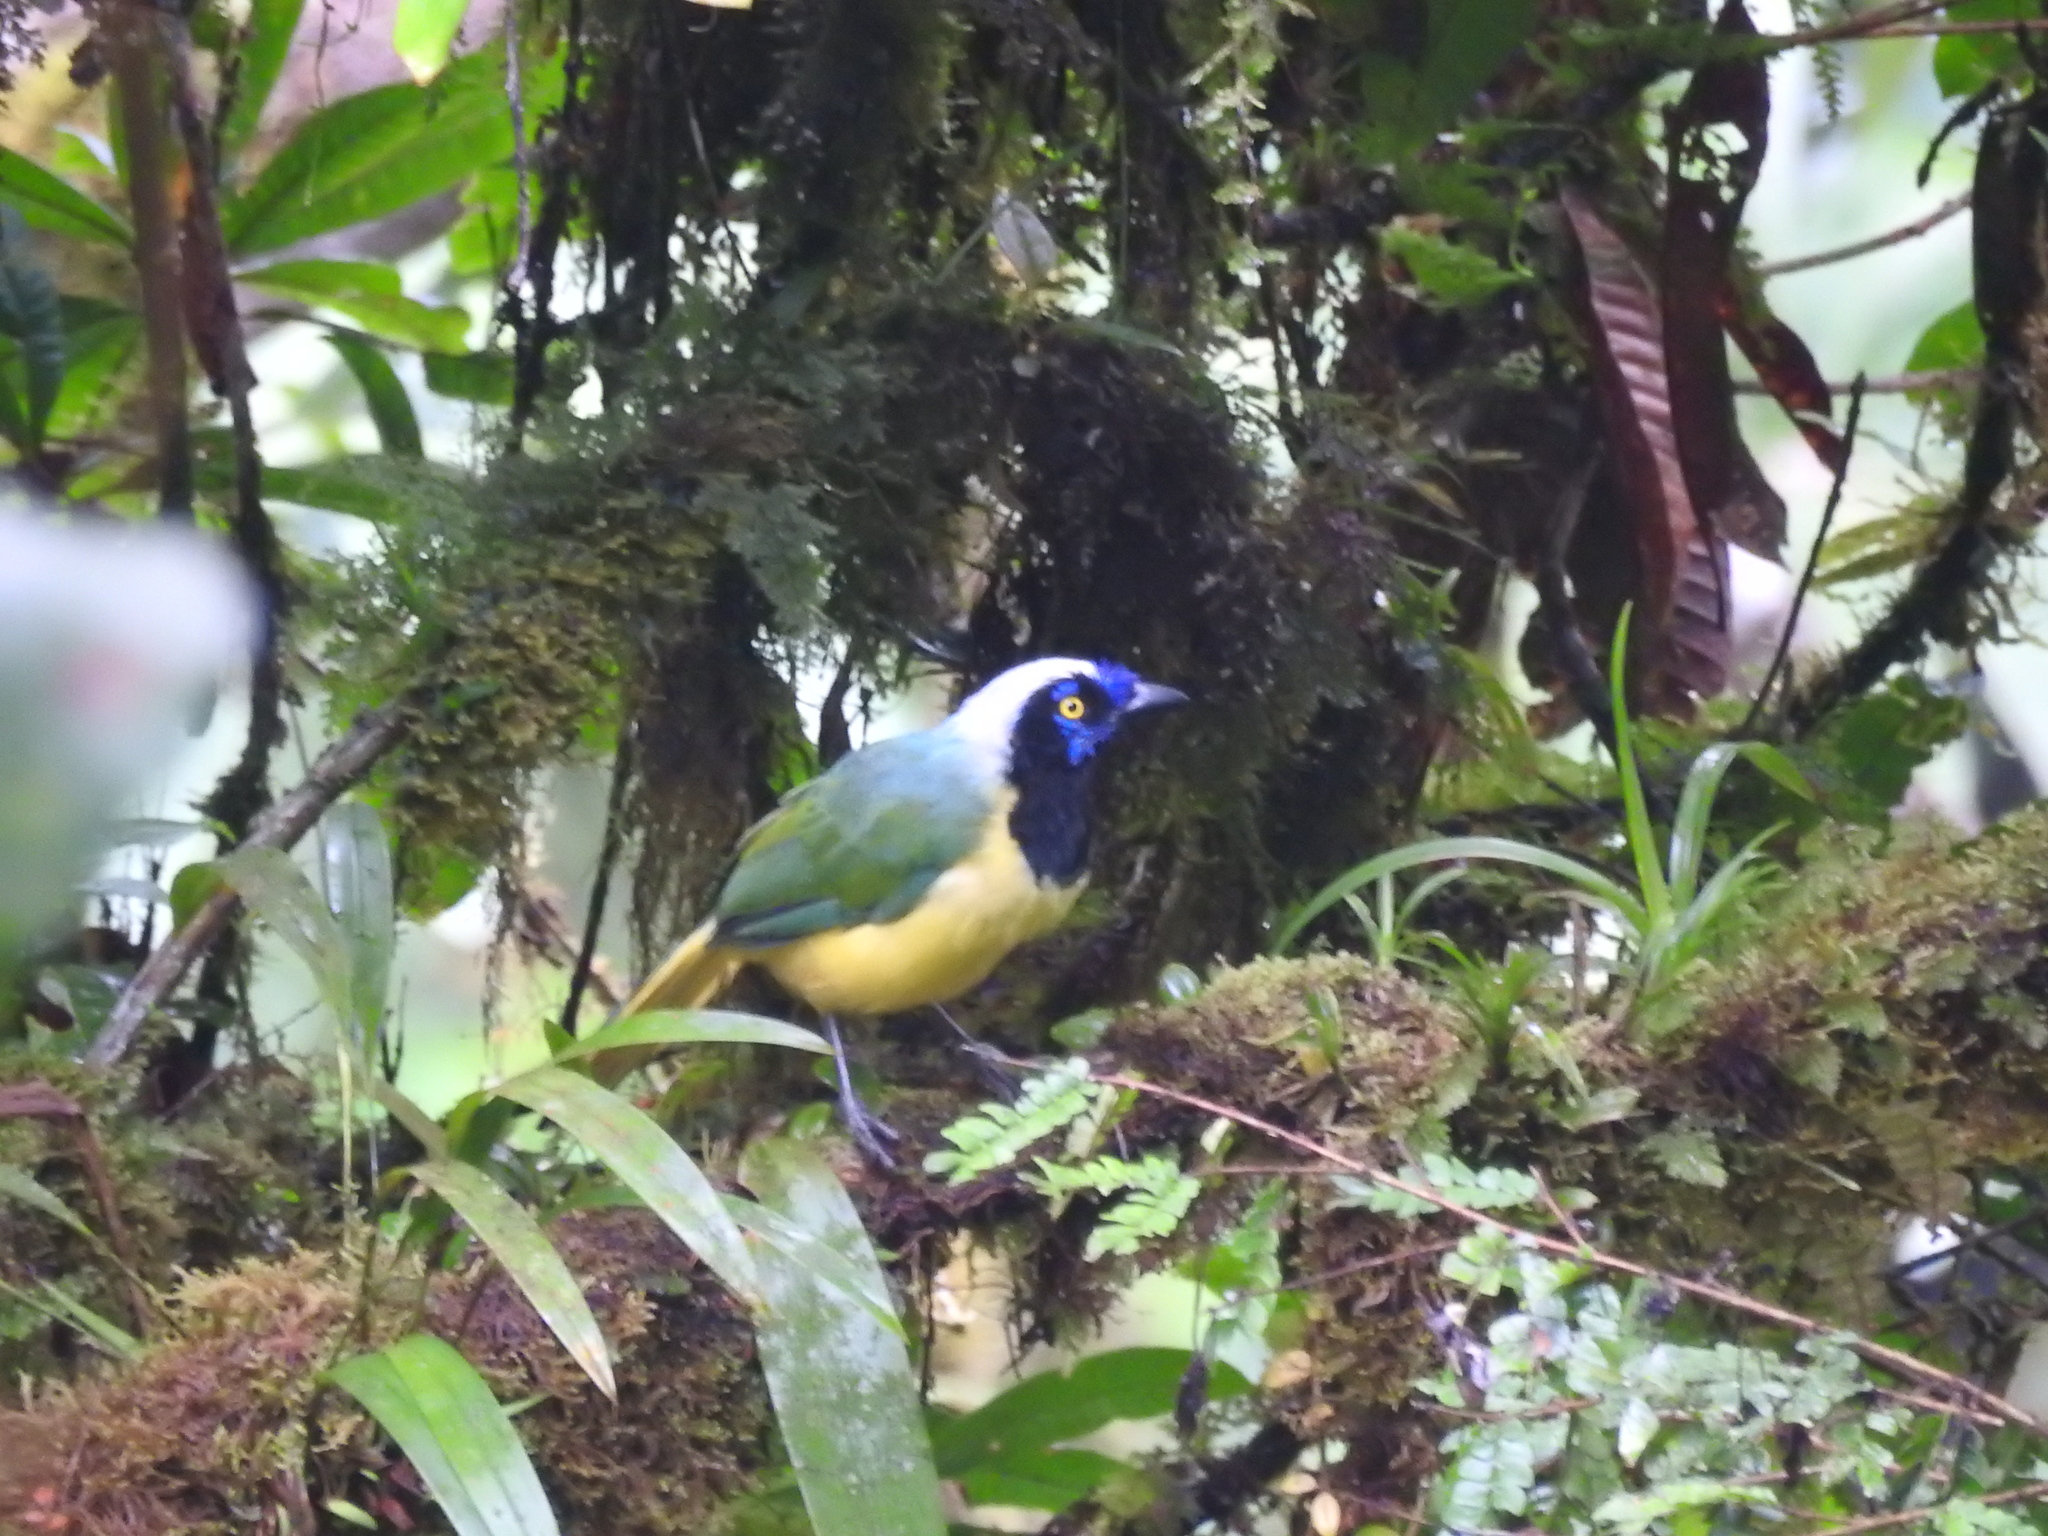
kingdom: Animalia
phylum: Chordata
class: Aves
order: Passeriformes
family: Corvidae
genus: Cyanocorax
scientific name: Cyanocorax yncas
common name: Green jay
